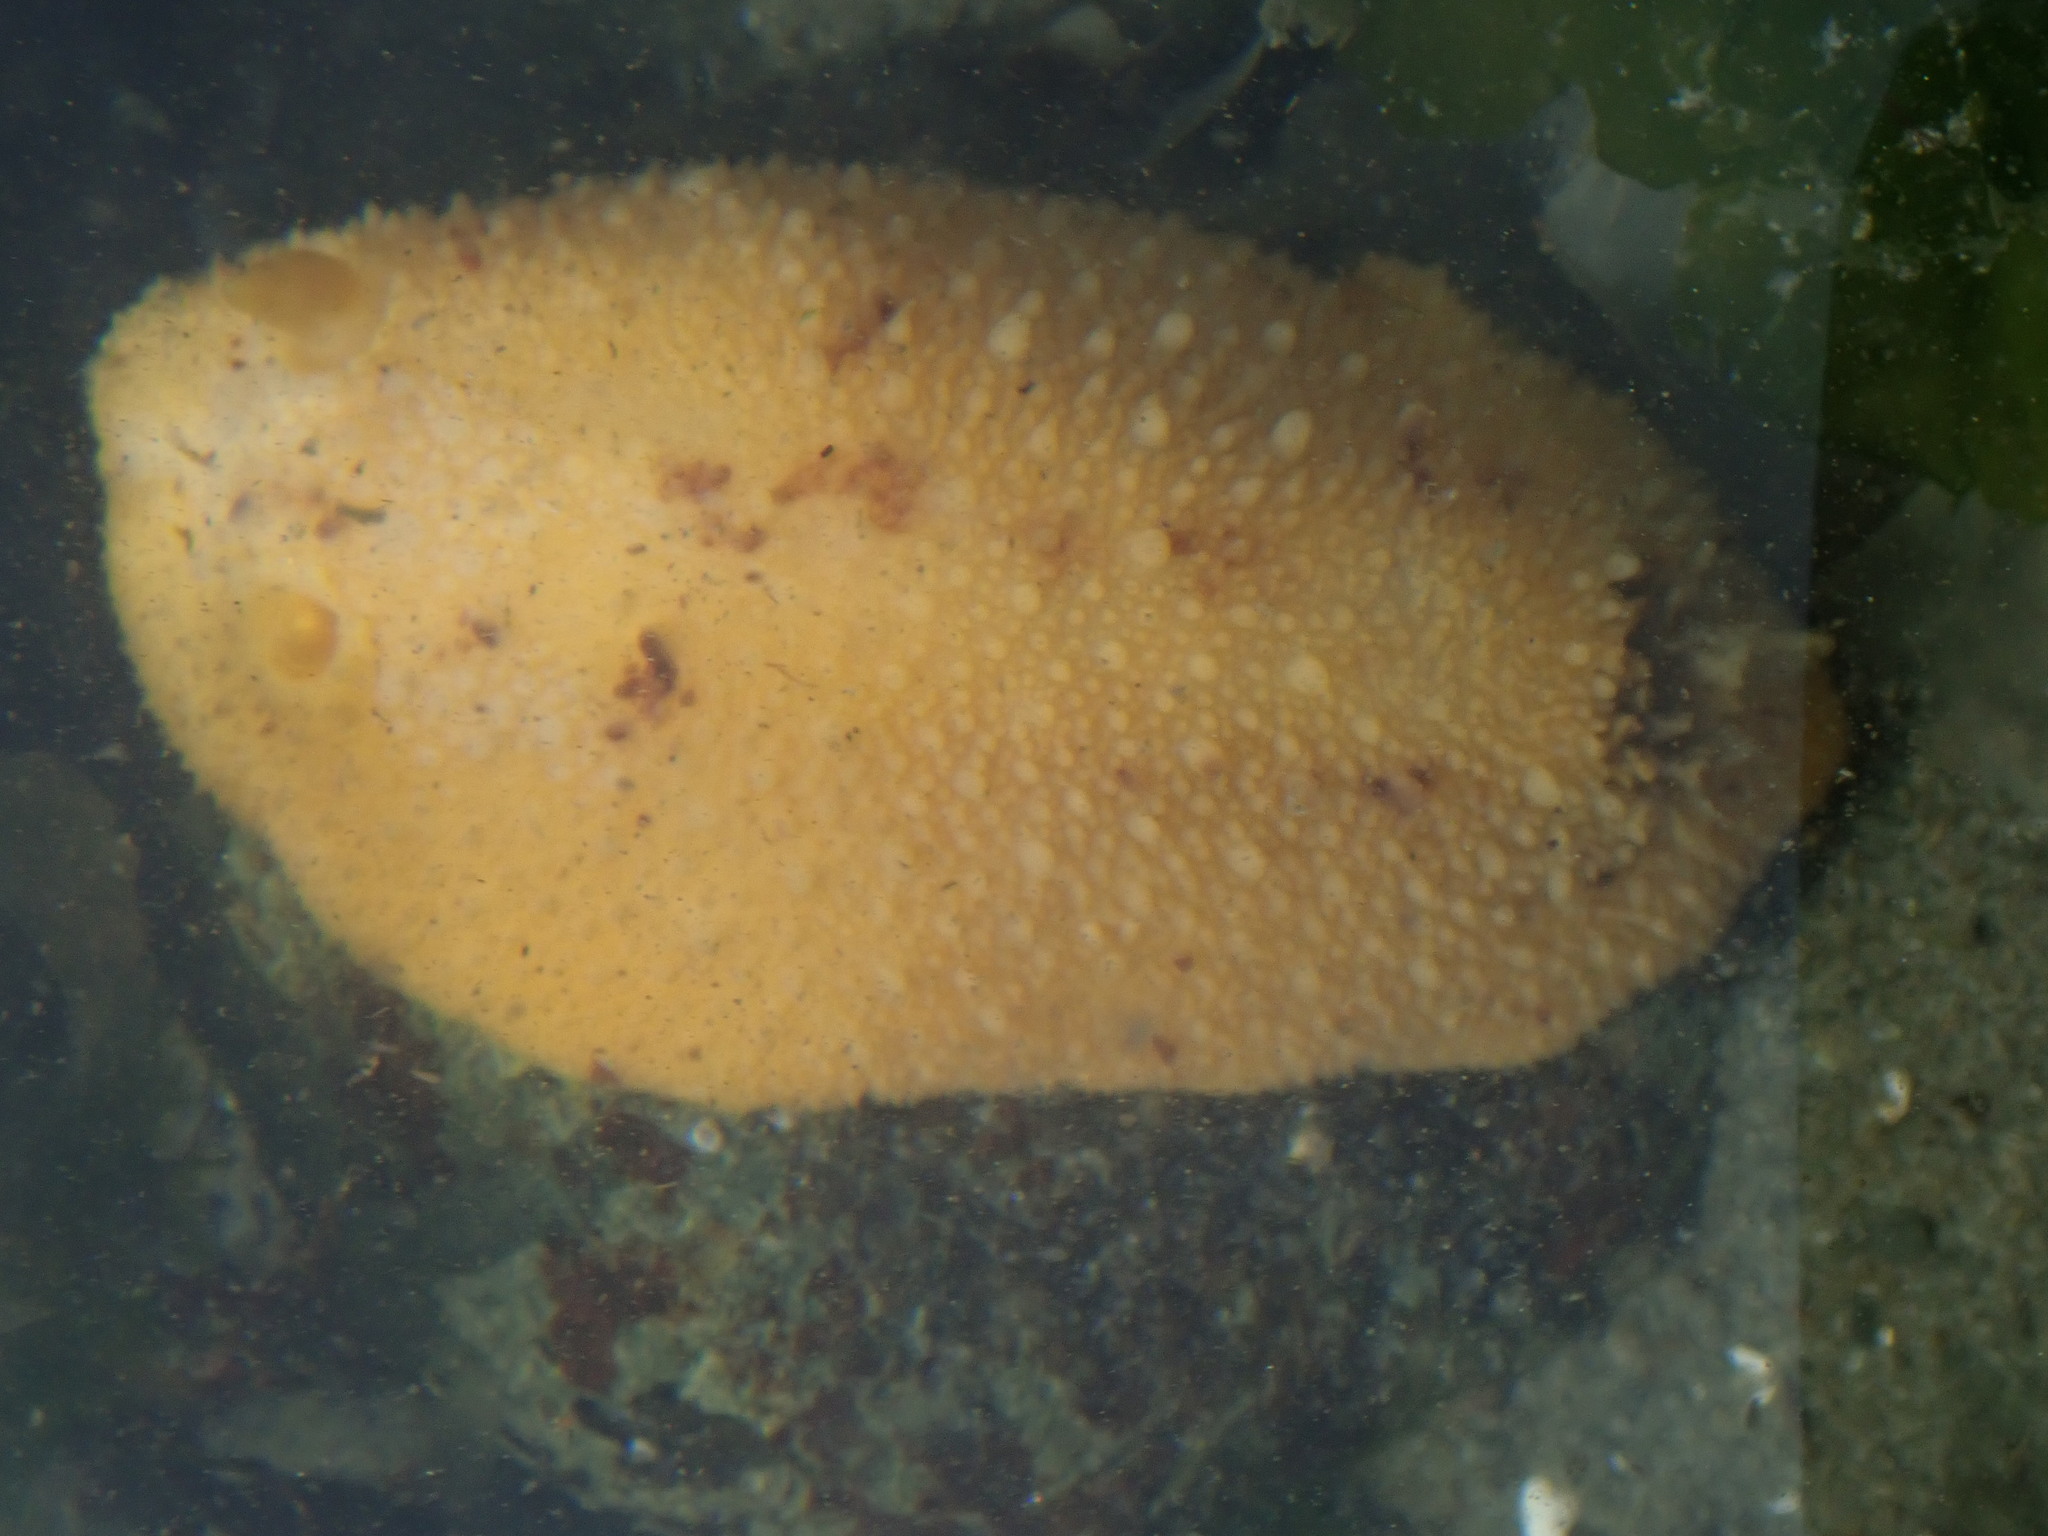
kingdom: Animalia
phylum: Mollusca
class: Gastropoda
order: Nudibranchia
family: Dorididae
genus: Doris
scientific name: Doris montereyensis
